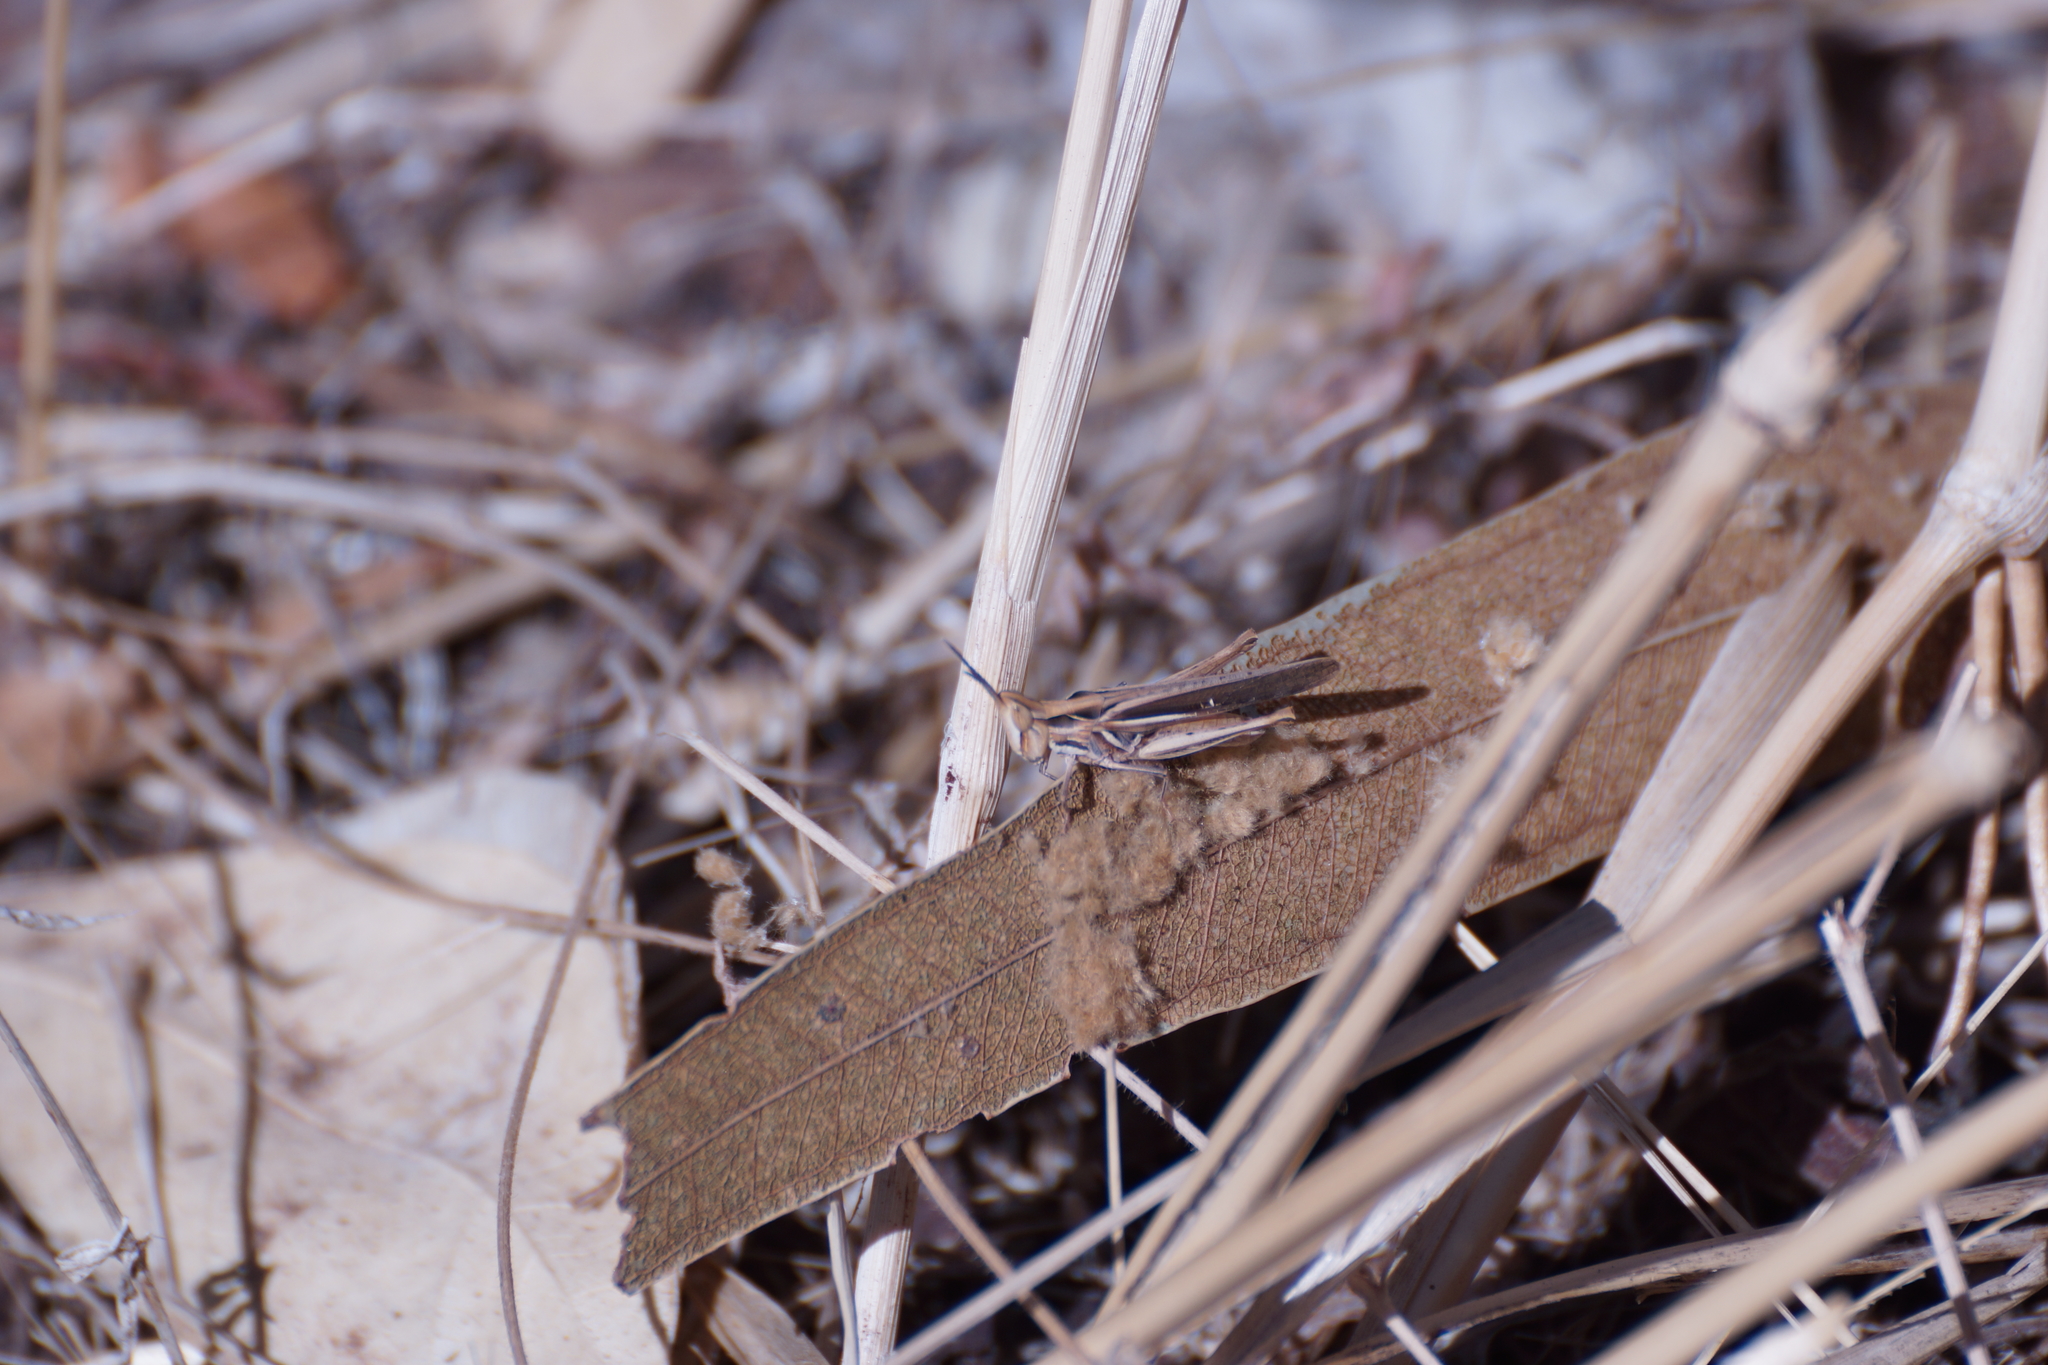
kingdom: Animalia
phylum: Arthropoda
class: Insecta
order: Orthoptera
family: Acrididae
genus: Froggattina
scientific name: Froggattina australis
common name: Froggatt's buzzer
